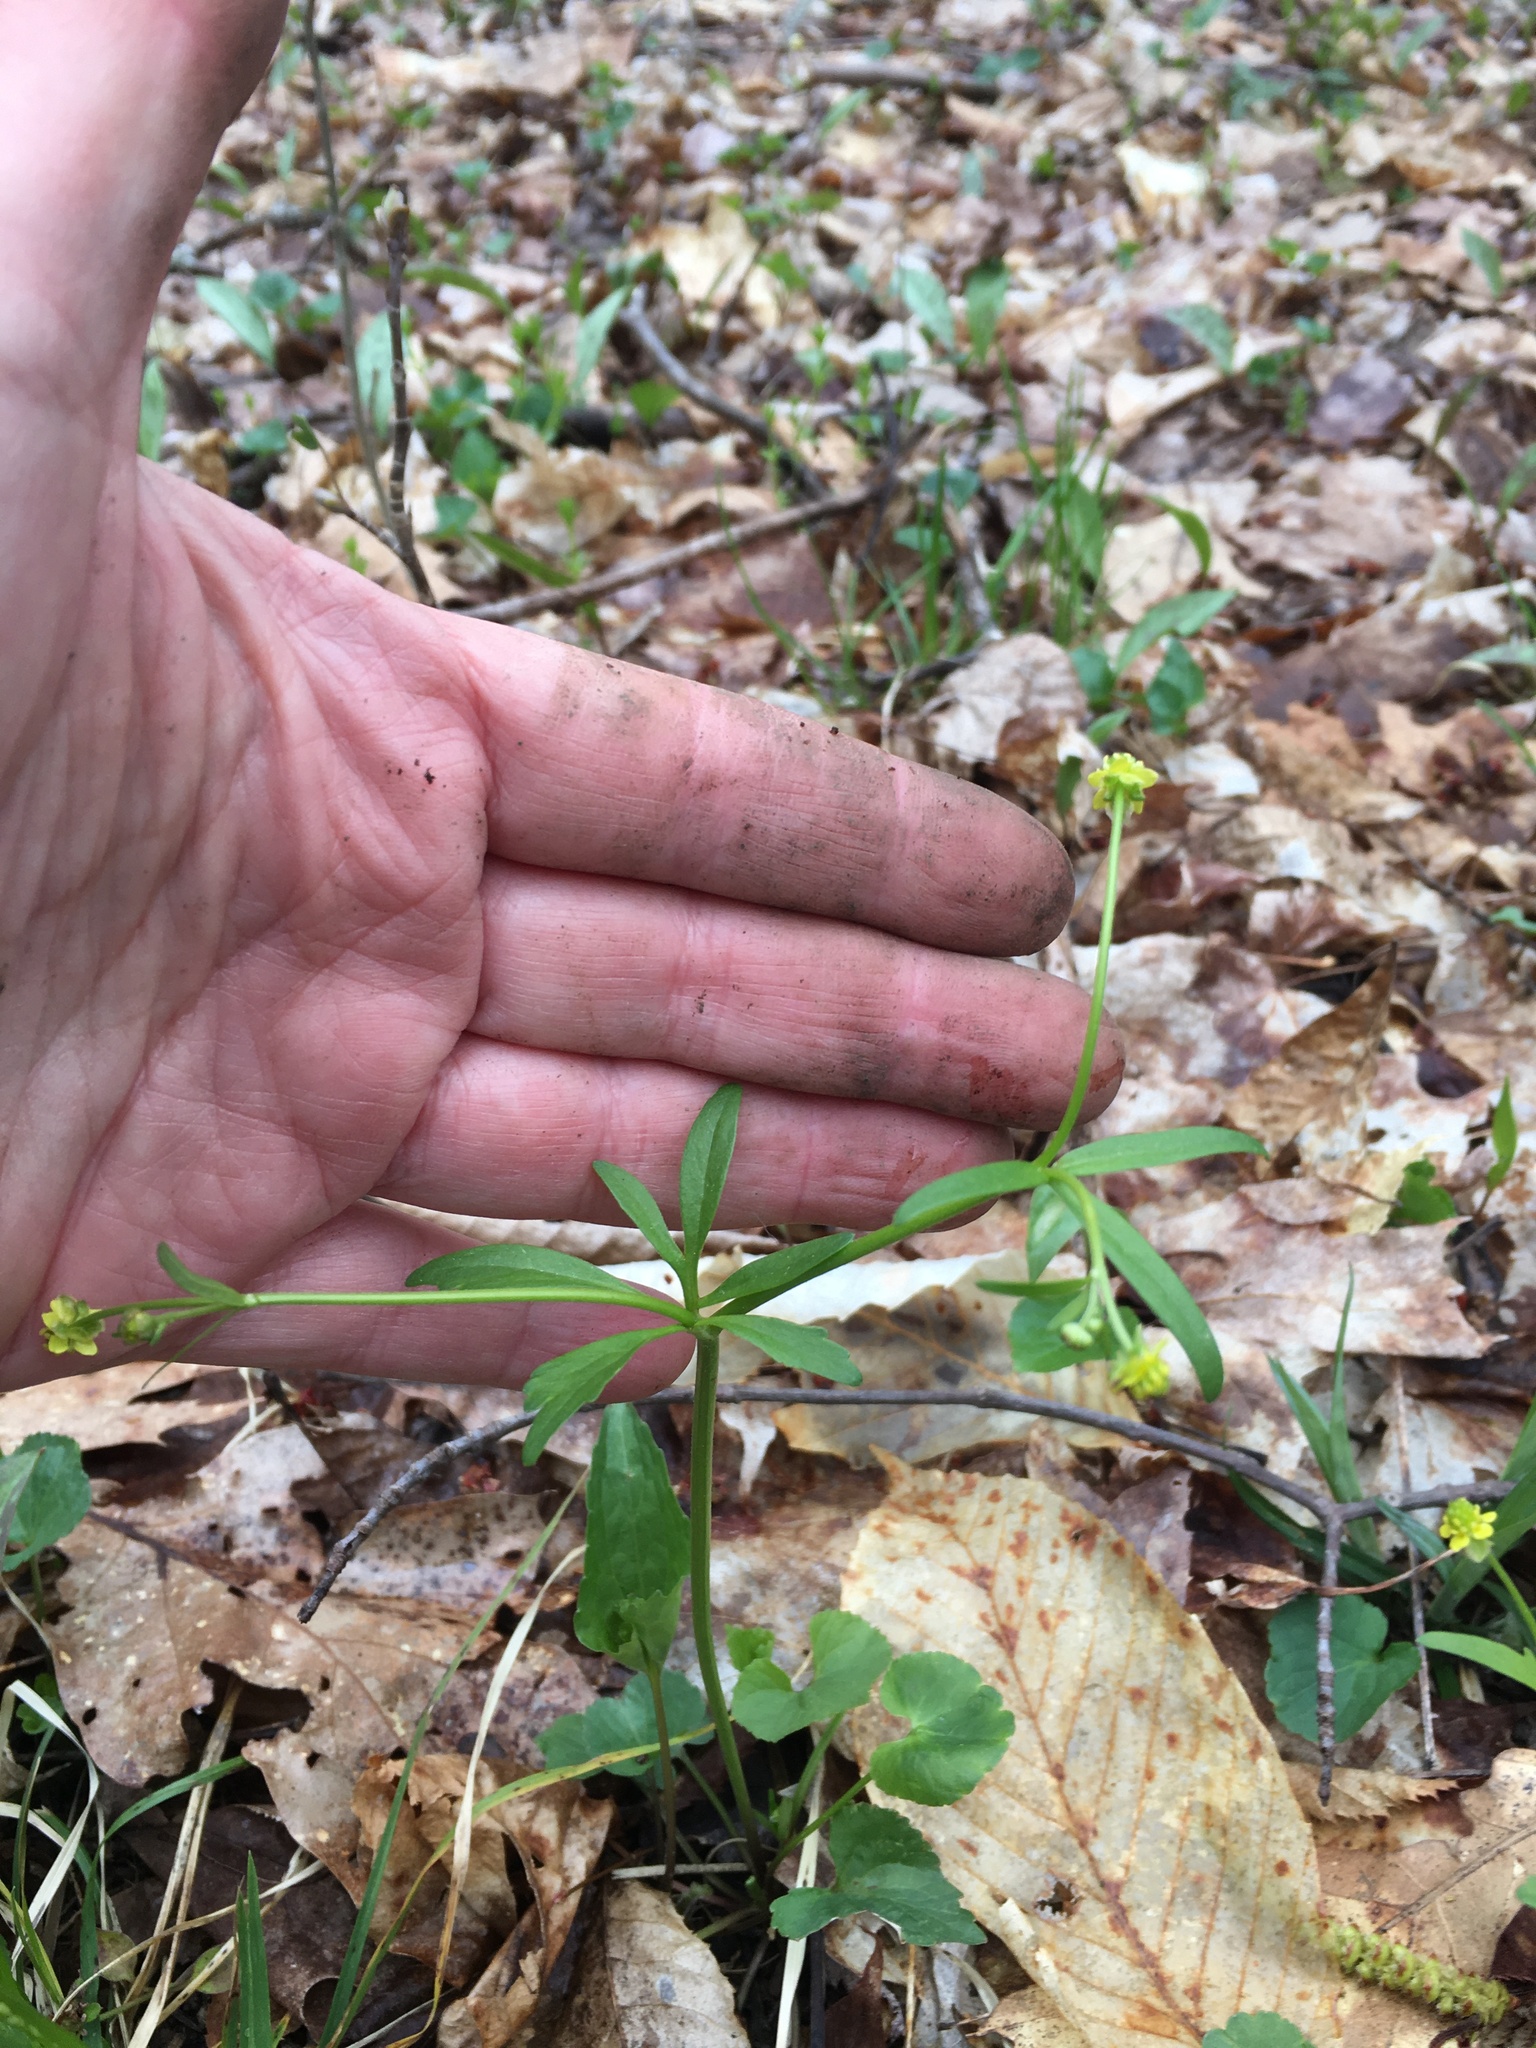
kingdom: Plantae
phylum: Tracheophyta
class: Magnoliopsida
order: Ranunculales
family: Ranunculaceae
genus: Ranunculus
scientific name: Ranunculus abortivus
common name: Early wood buttercup
